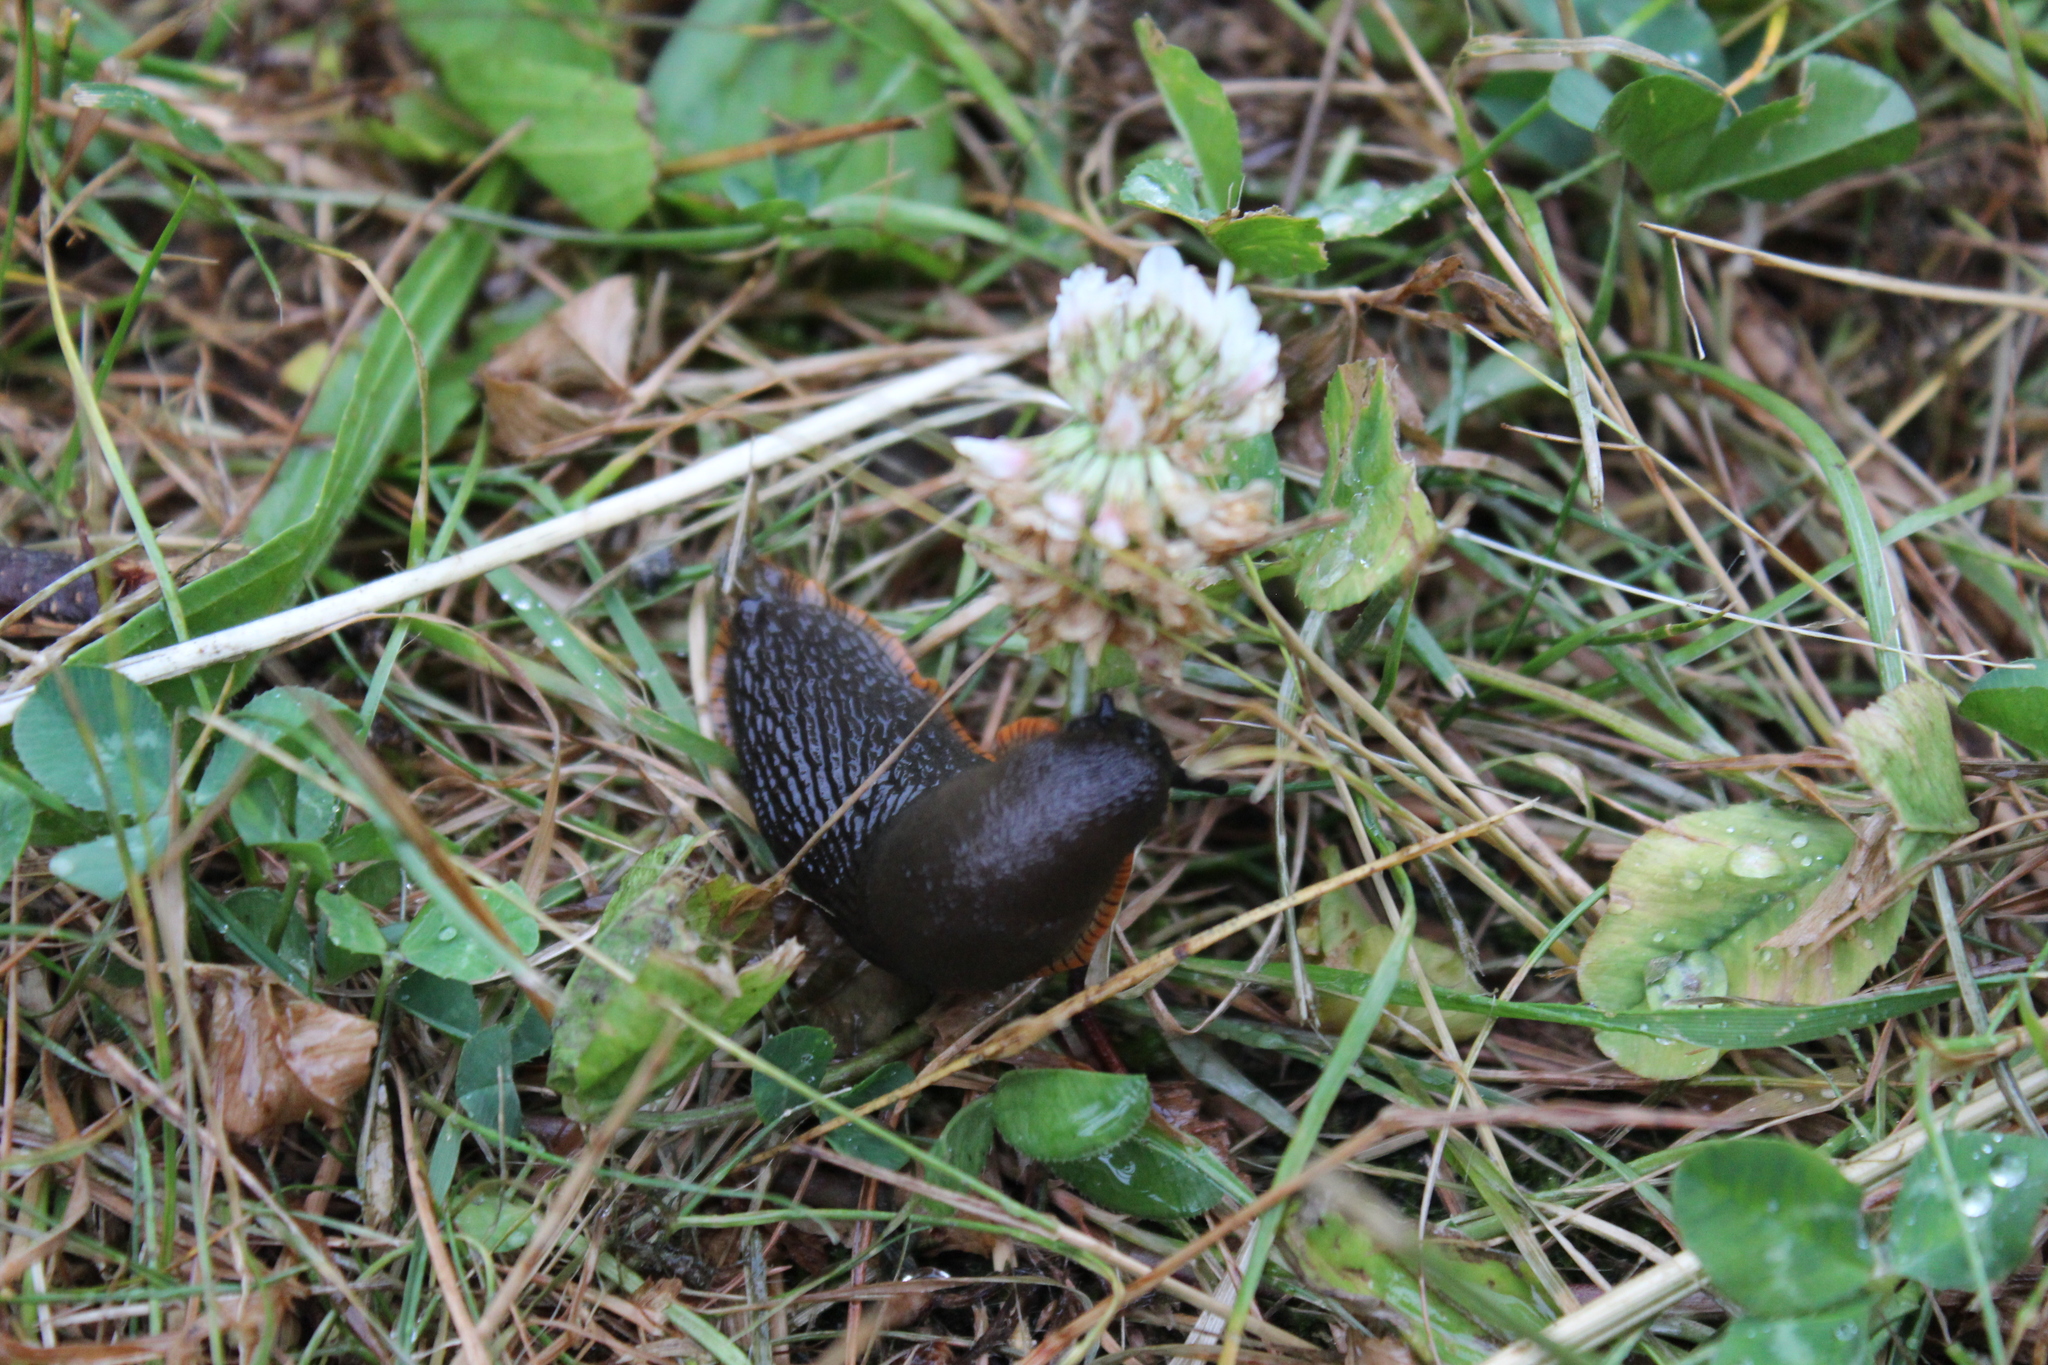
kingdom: Animalia
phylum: Mollusca
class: Gastropoda
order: Stylommatophora
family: Arionidae
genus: Arion
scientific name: Arion rufus
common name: Chocolate arion
